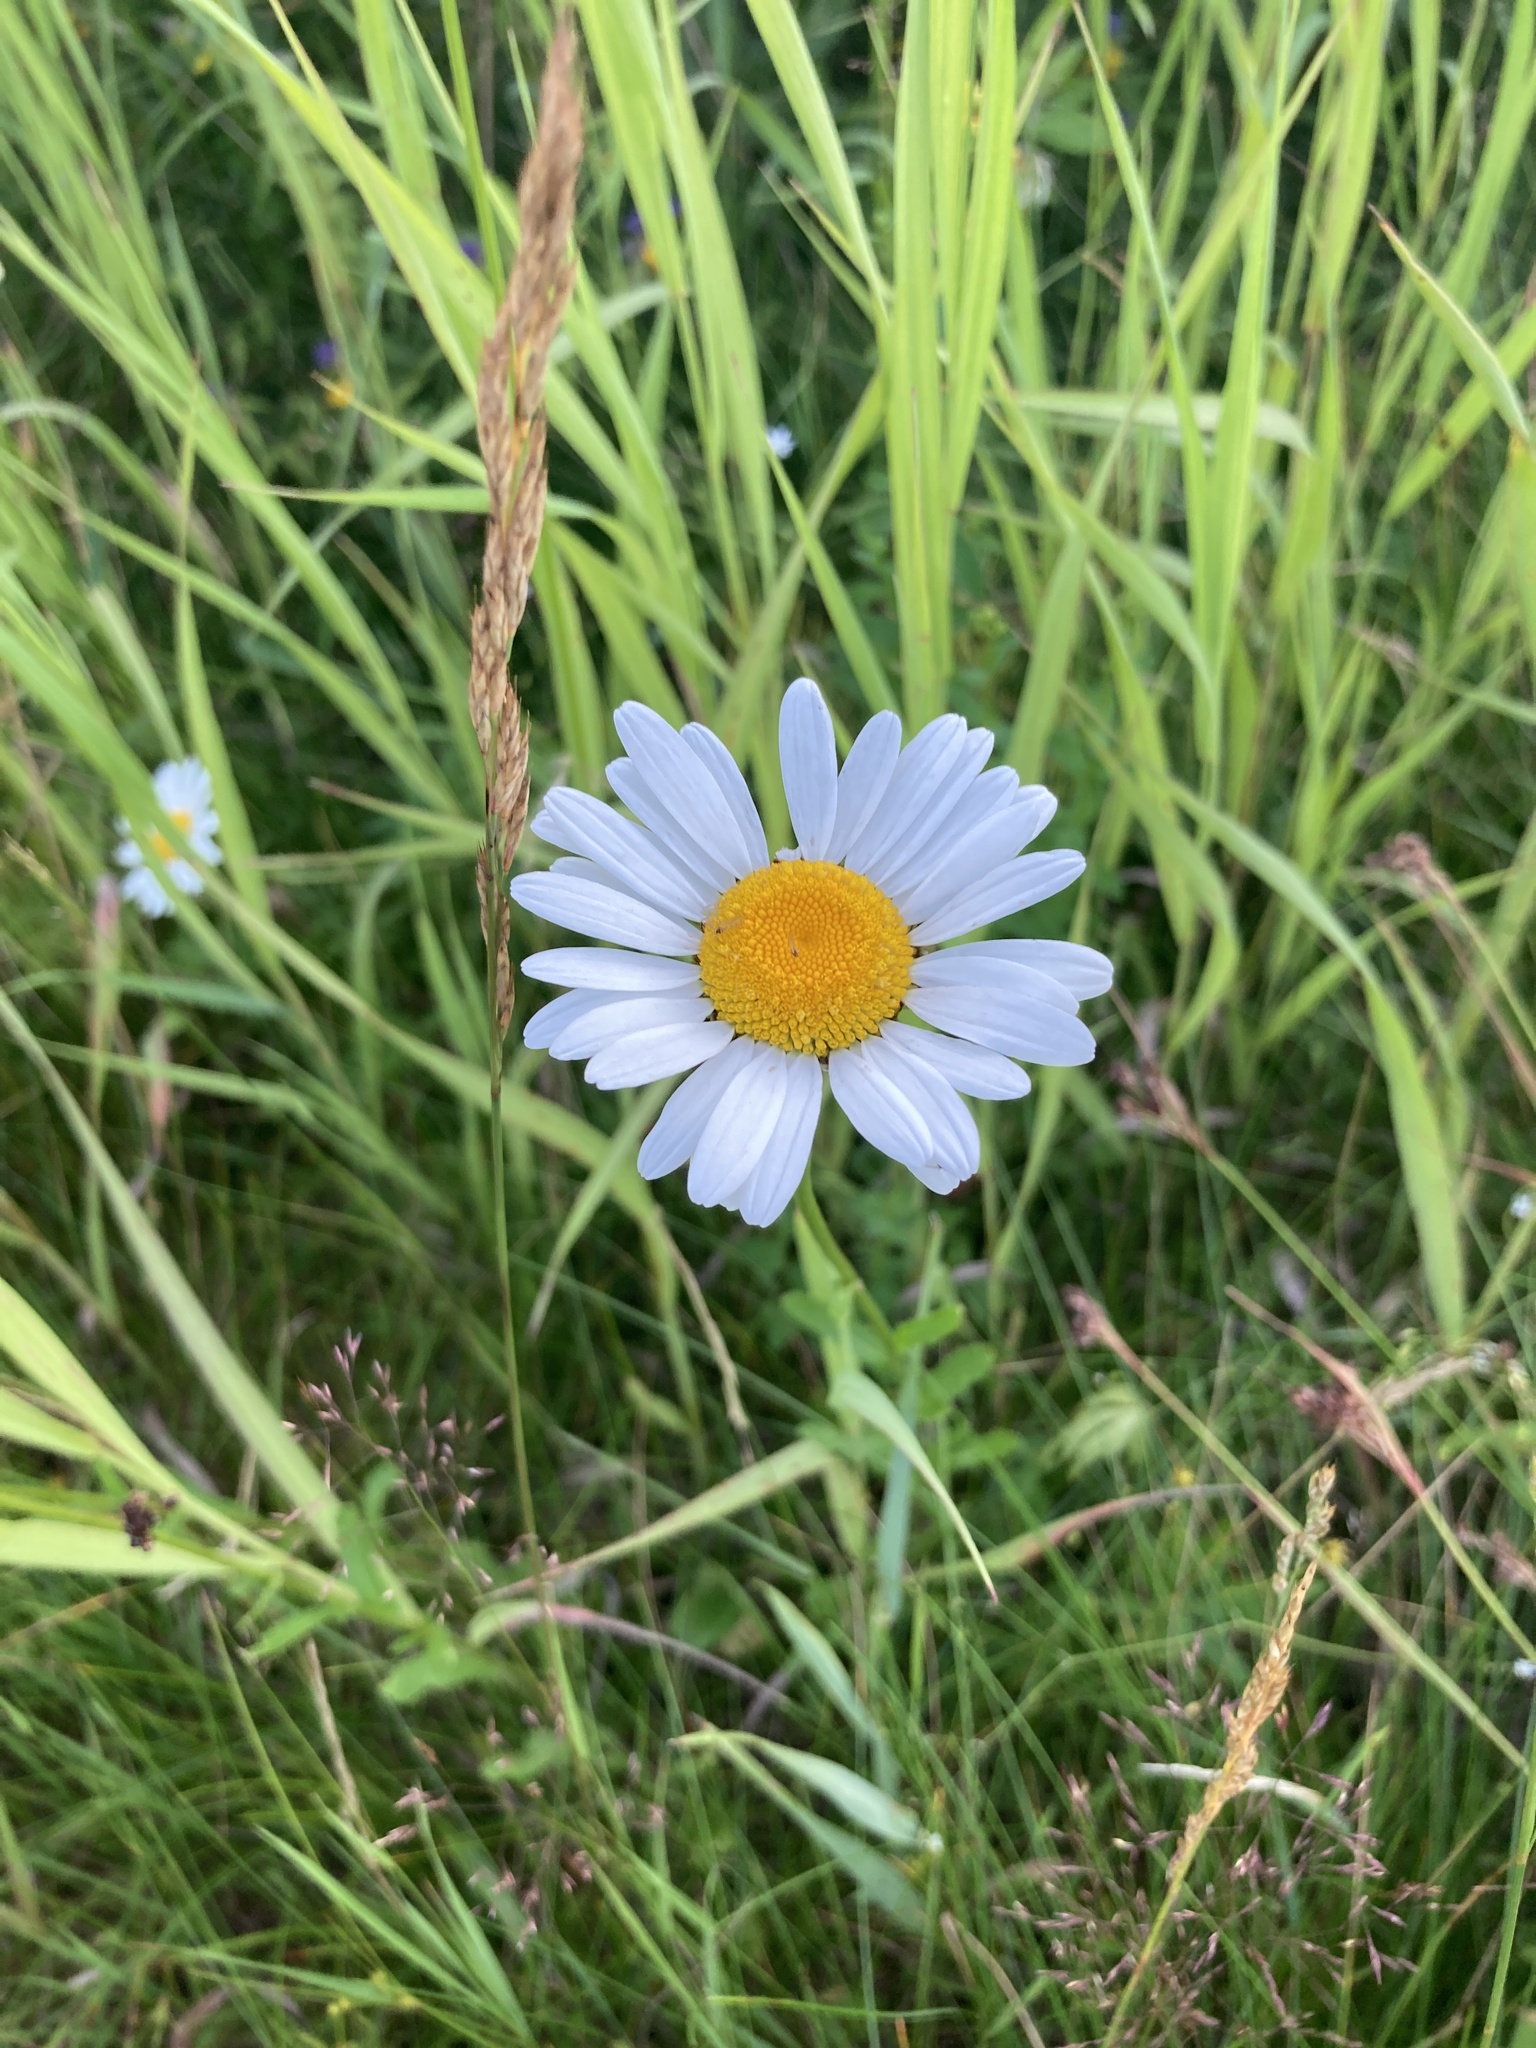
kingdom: Plantae
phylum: Tracheophyta
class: Magnoliopsida
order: Asterales
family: Asteraceae
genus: Leucanthemum
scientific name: Leucanthemum vulgare
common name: Oxeye daisy
